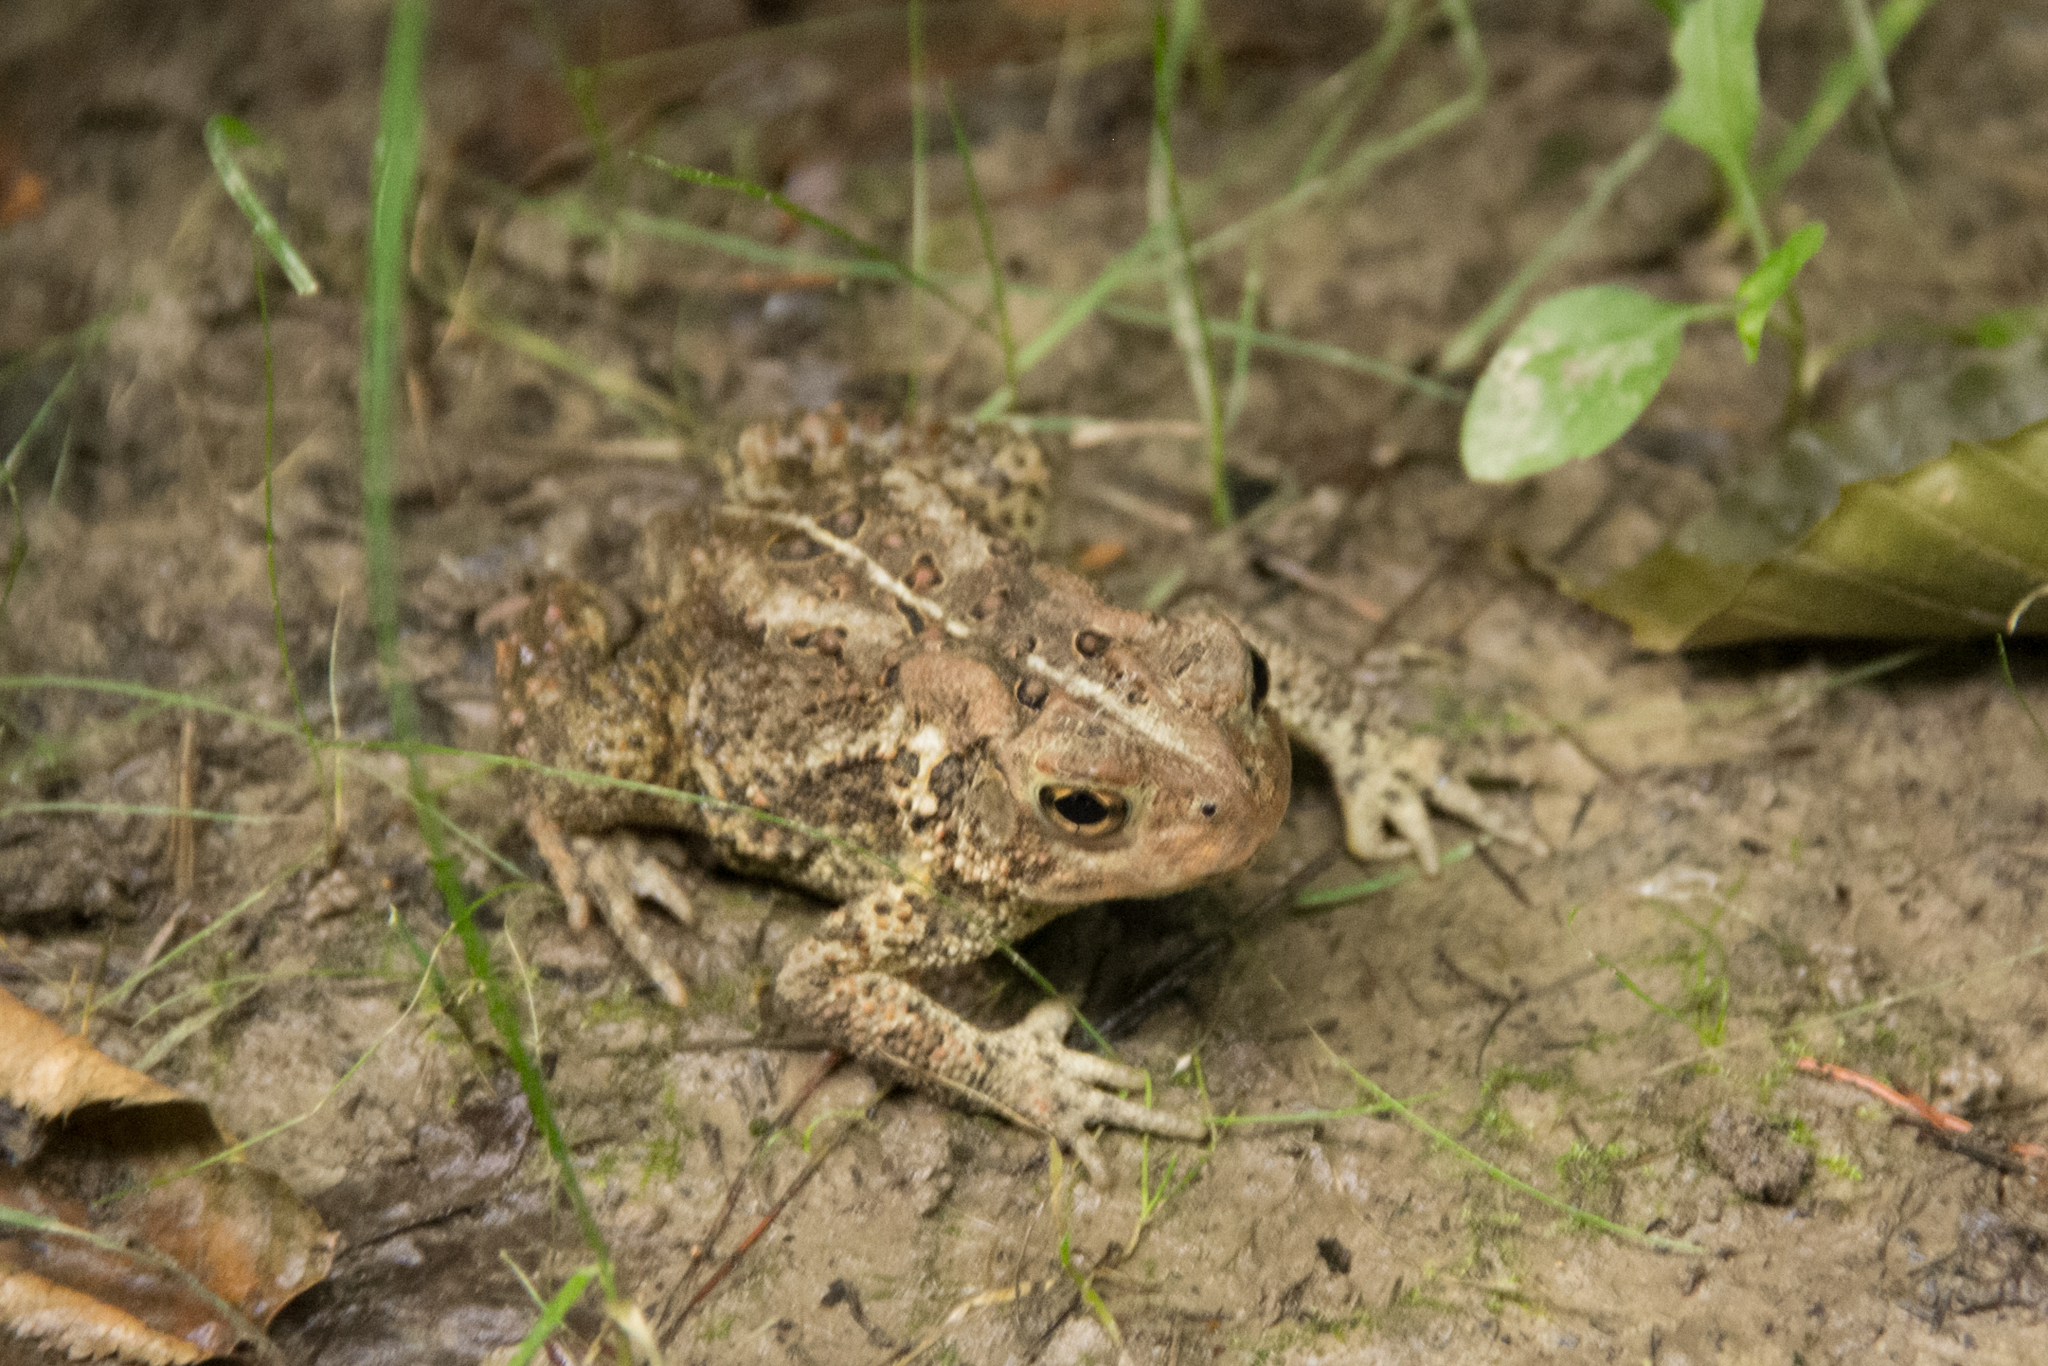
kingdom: Animalia
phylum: Chordata
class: Amphibia
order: Anura
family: Bufonidae
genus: Anaxyrus
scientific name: Anaxyrus americanus
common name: American toad
